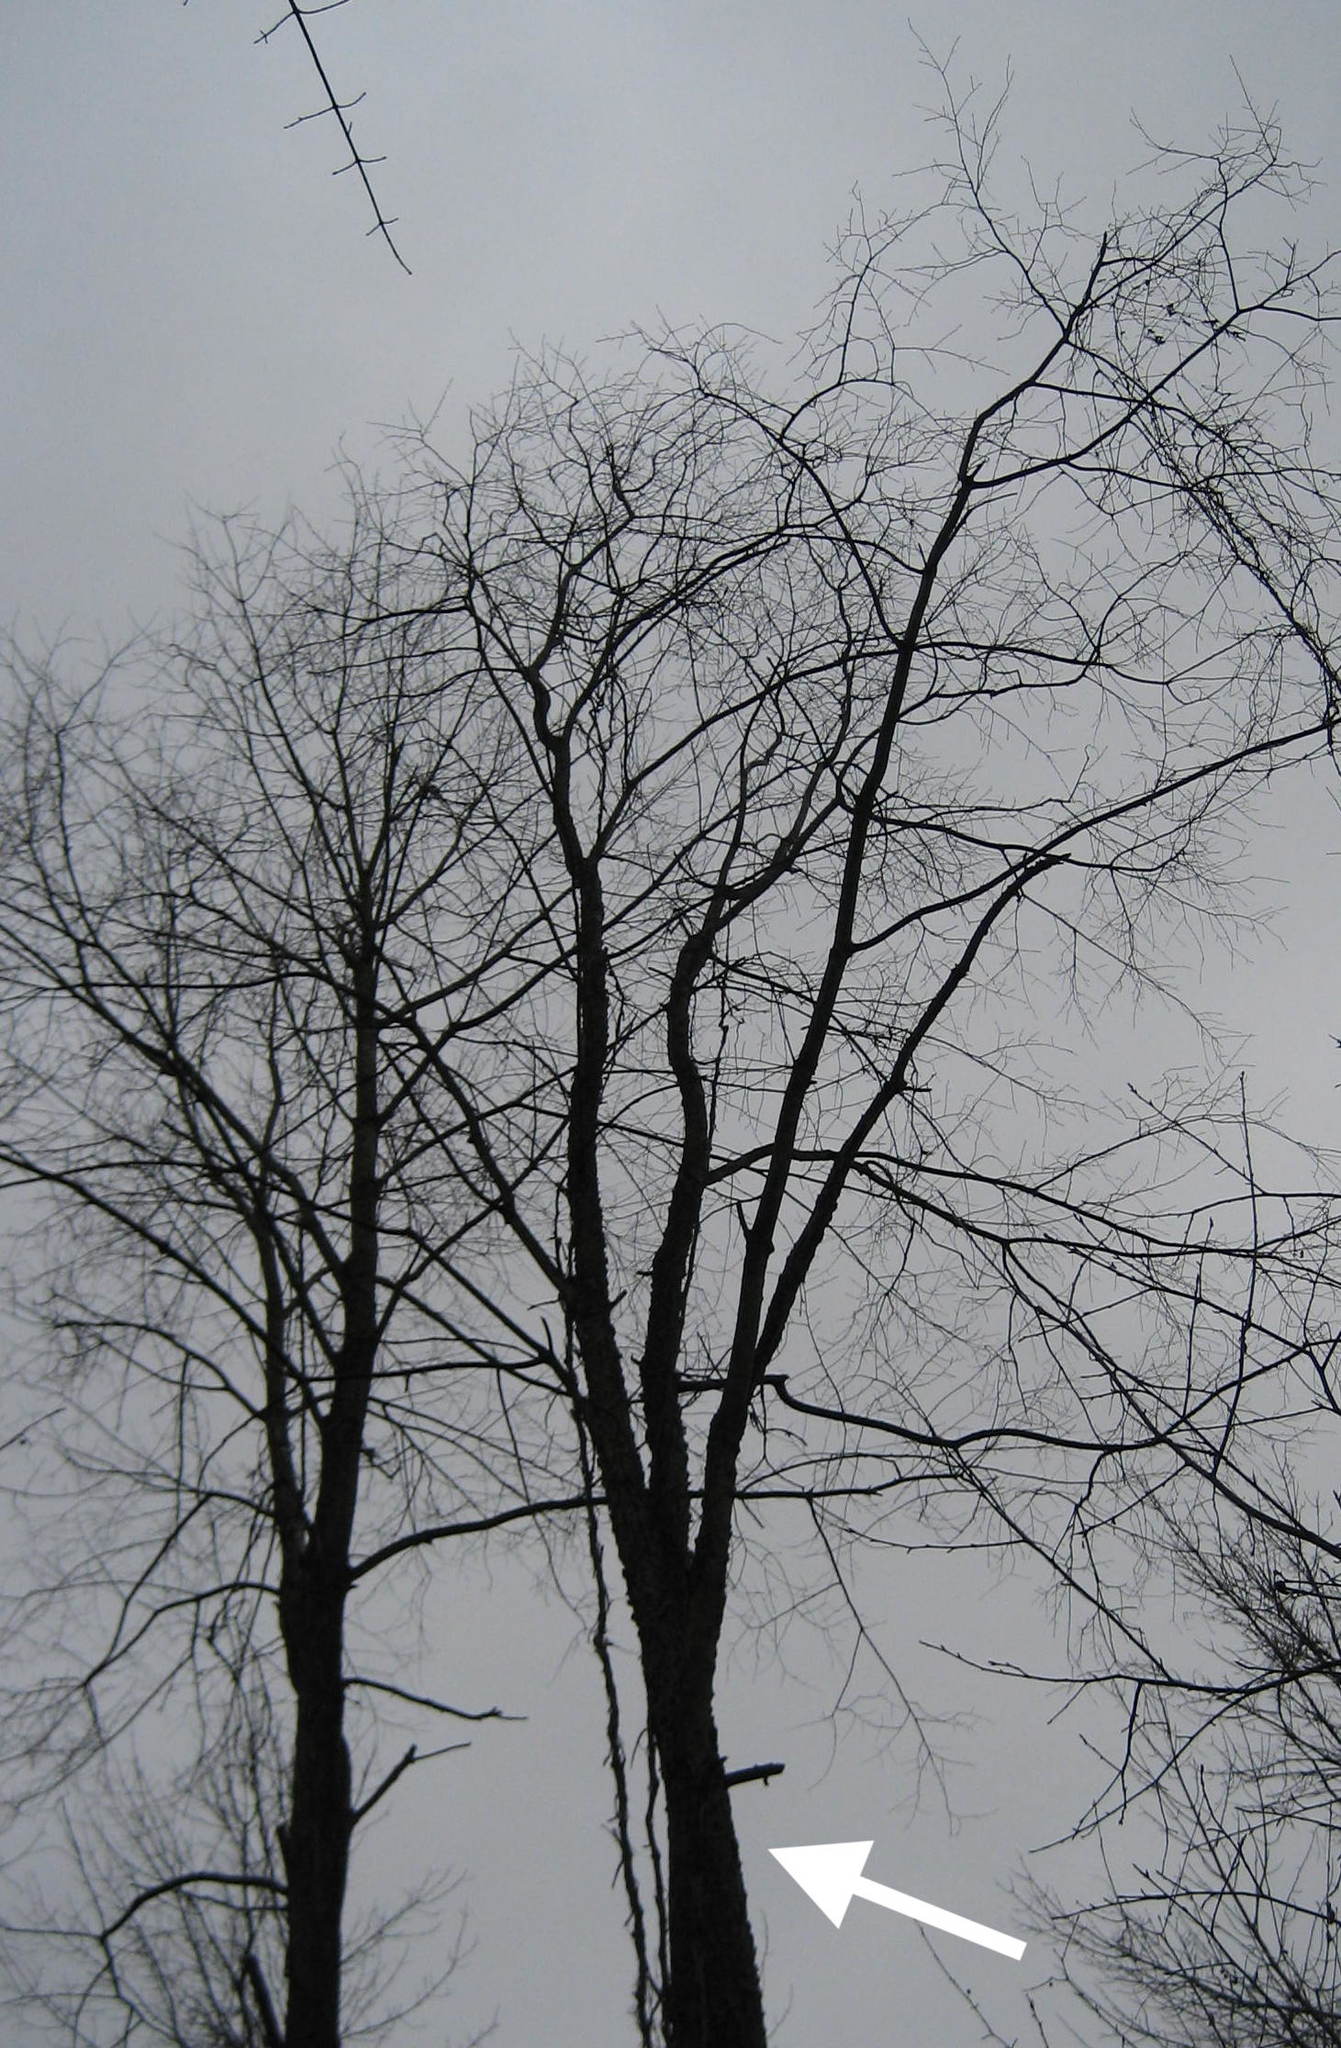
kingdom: Plantae
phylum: Tracheophyta
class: Magnoliopsida
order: Rosales
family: Rosaceae
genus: Prunus
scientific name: Prunus serotina
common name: Black cherry
